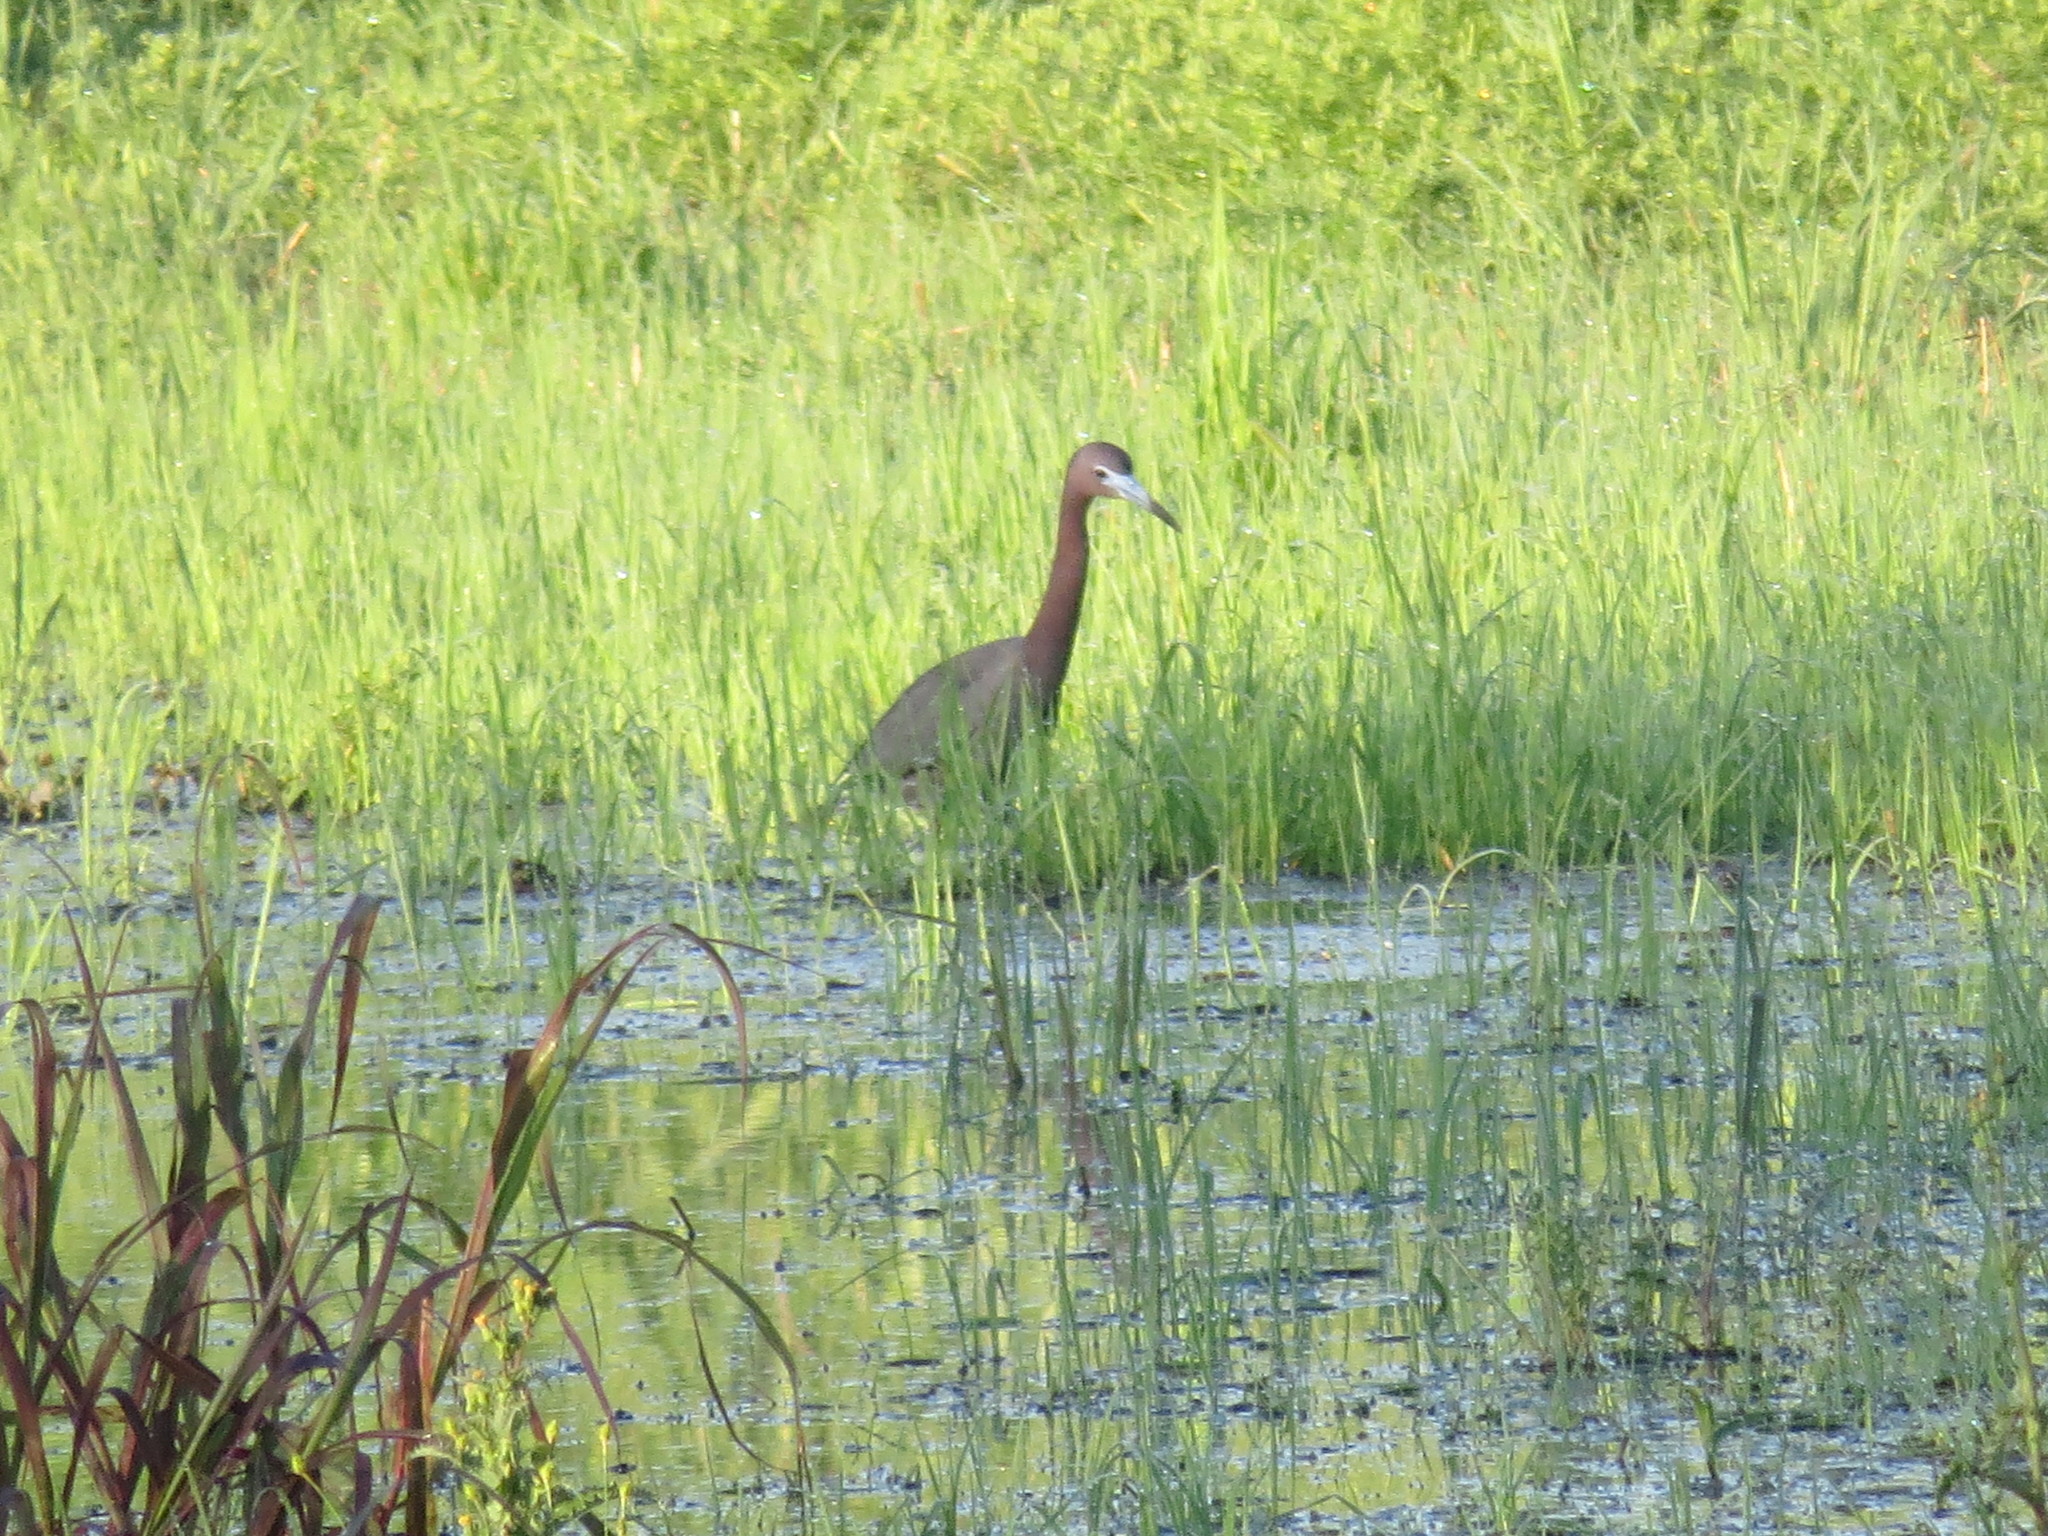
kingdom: Animalia
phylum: Chordata
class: Aves
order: Pelecaniformes
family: Ardeidae
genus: Egretta
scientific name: Egretta caerulea
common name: Little blue heron
